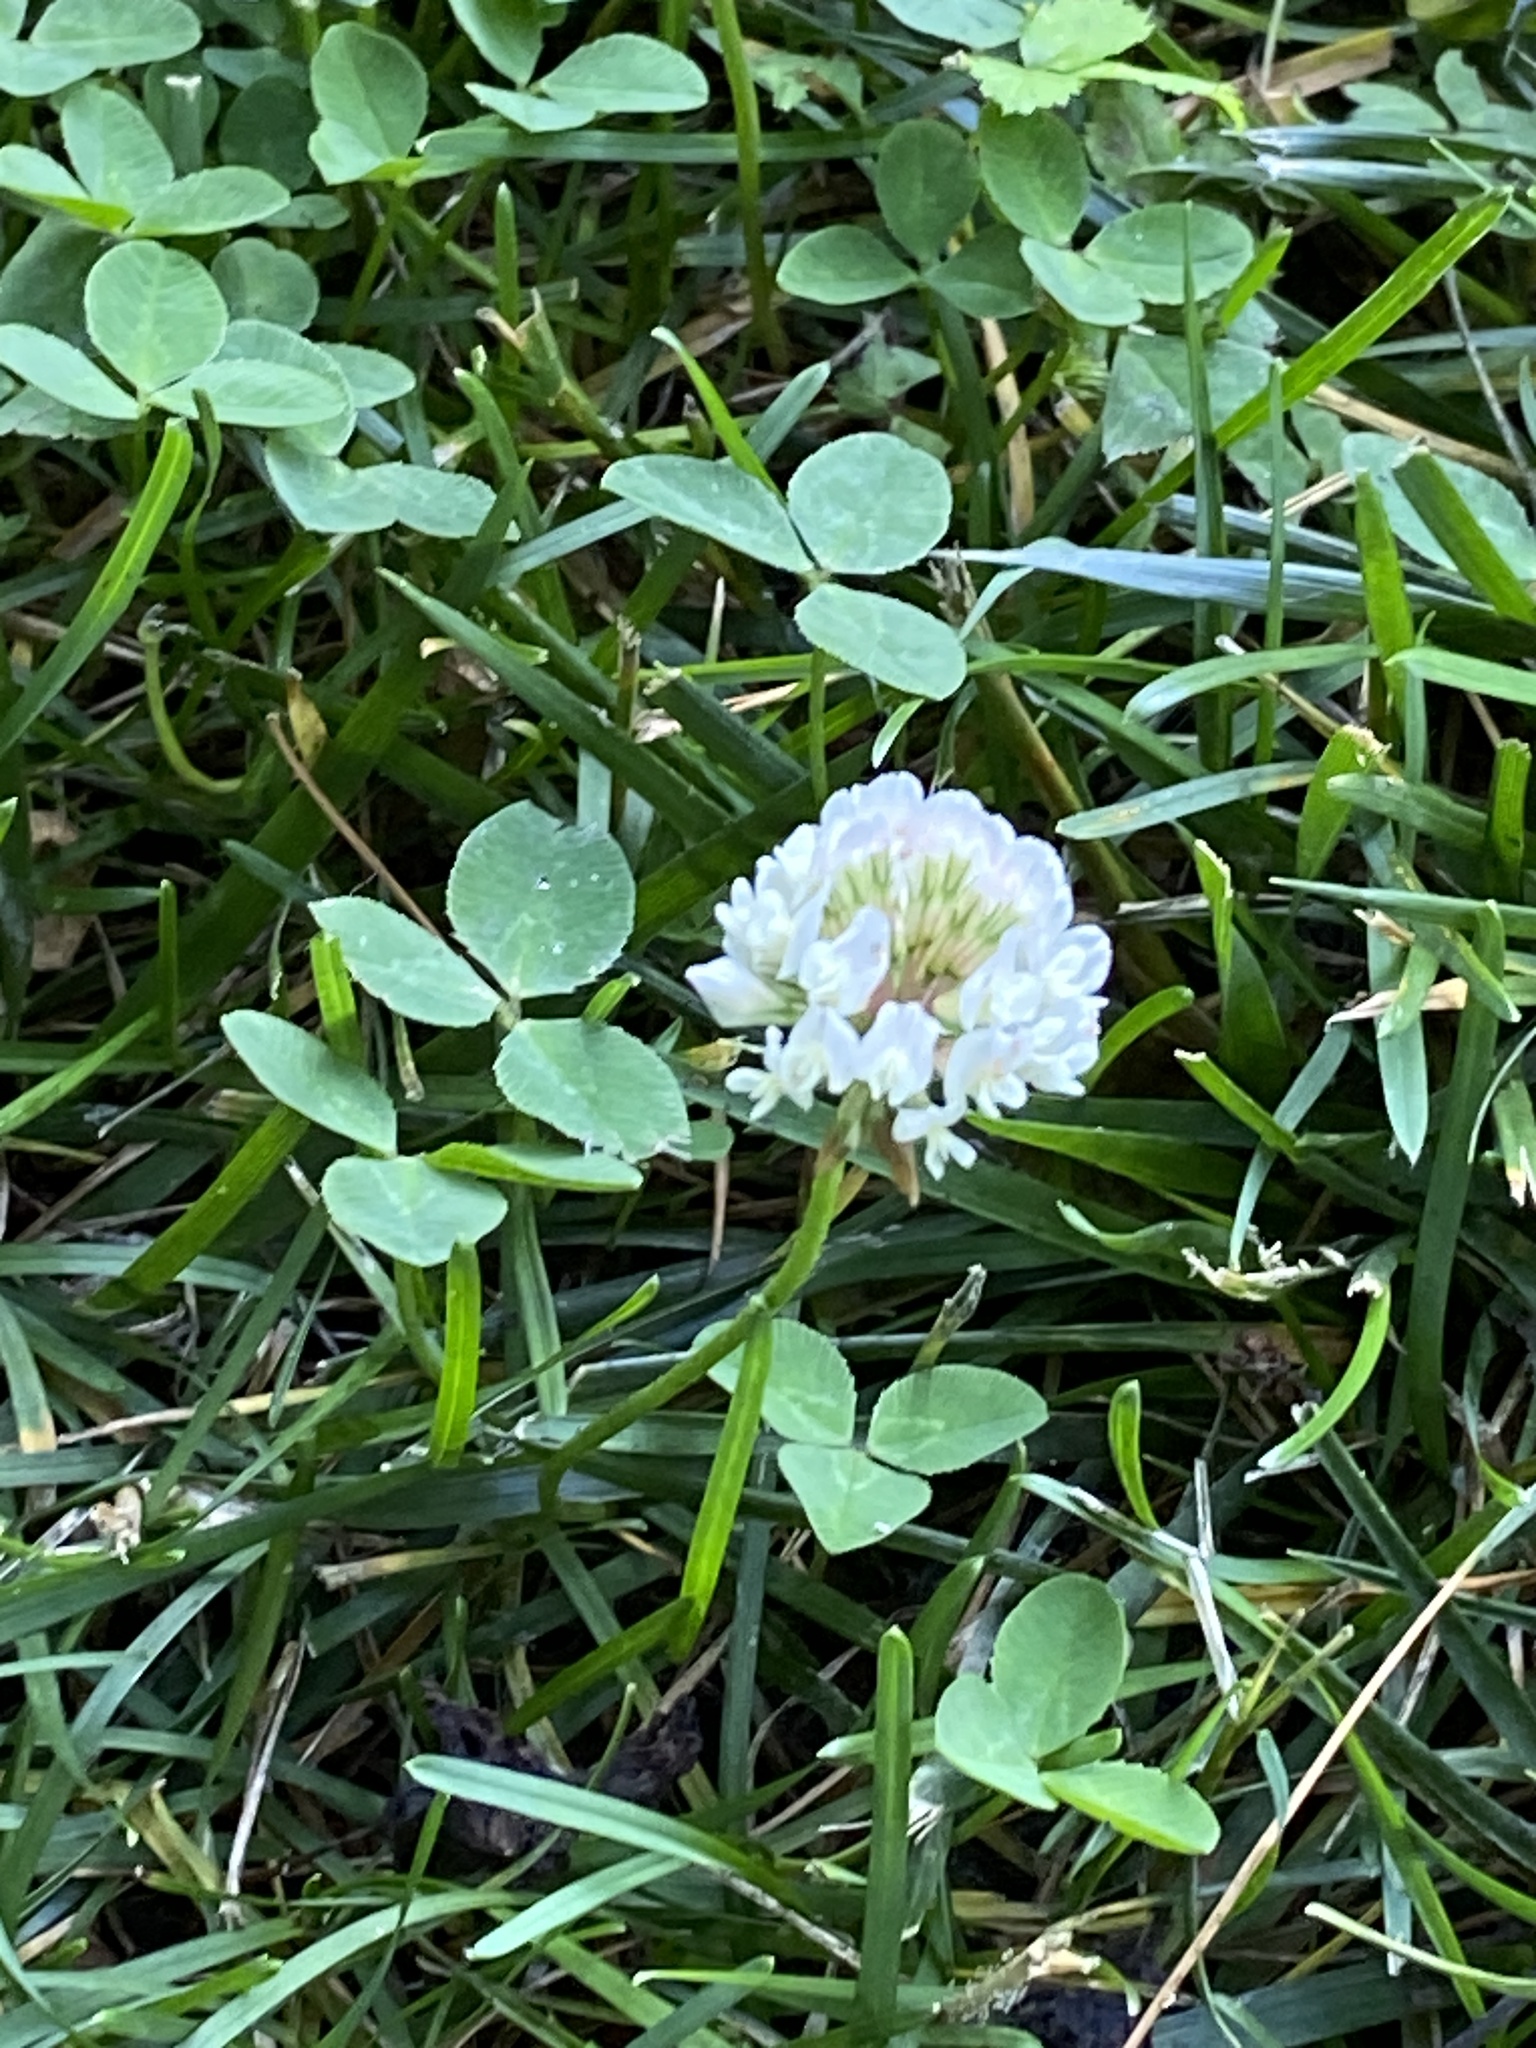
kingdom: Plantae
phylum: Tracheophyta
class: Magnoliopsida
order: Fabales
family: Fabaceae
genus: Trifolium
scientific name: Trifolium repens
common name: White clover
